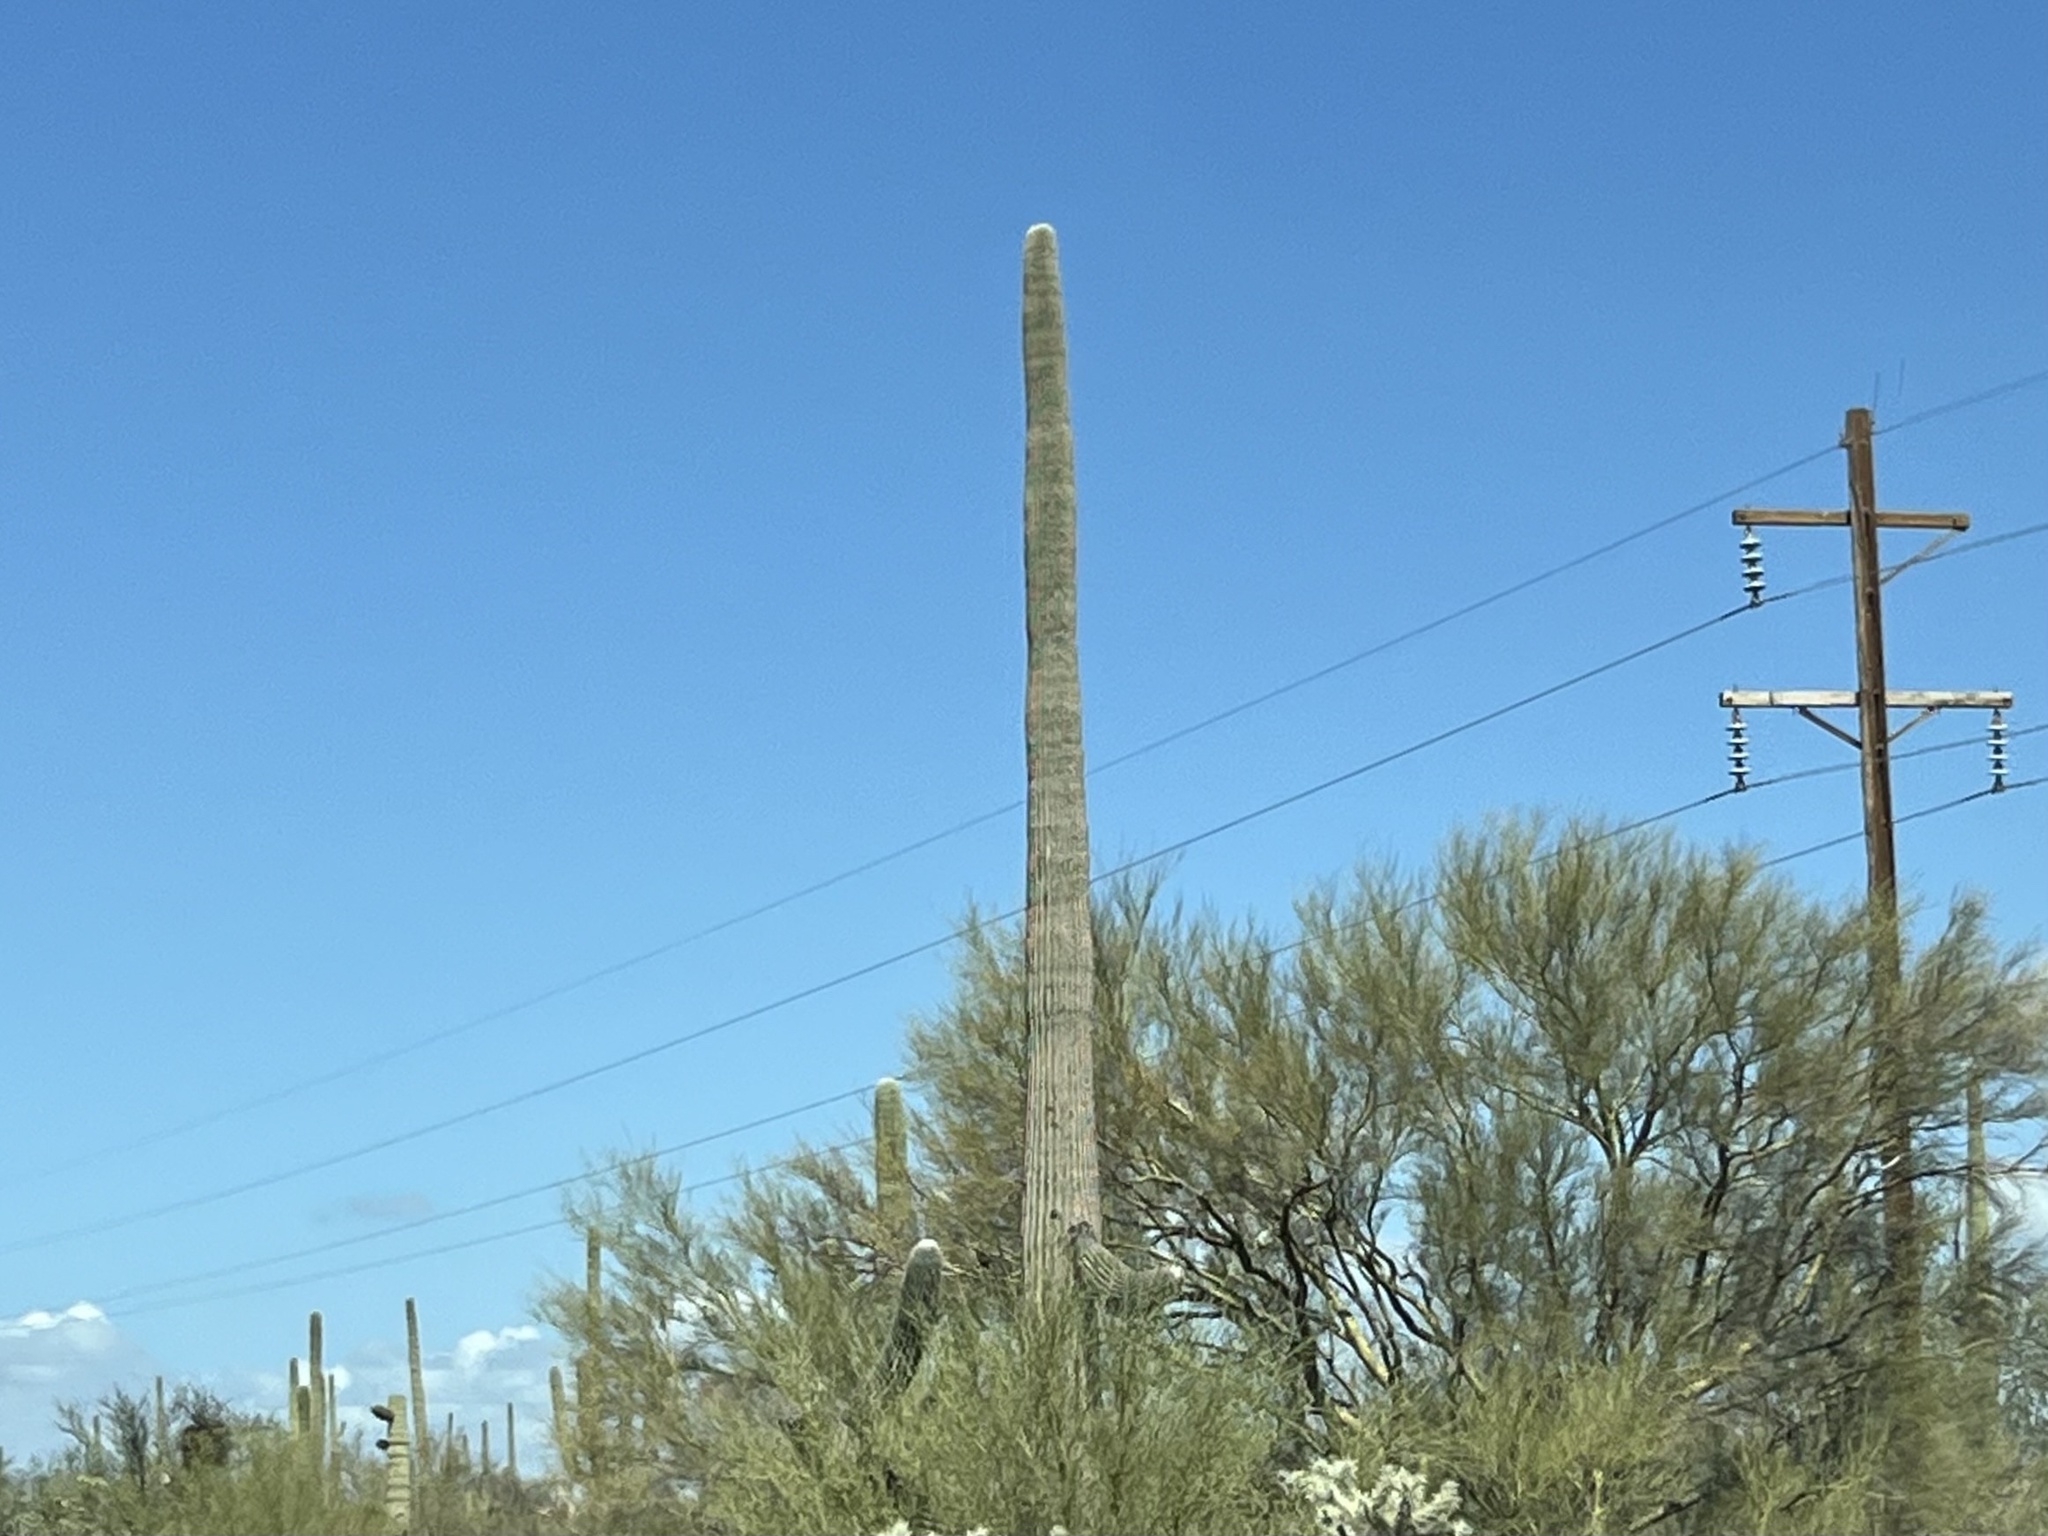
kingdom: Plantae
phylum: Tracheophyta
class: Magnoliopsida
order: Caryophyllales
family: Cactaceae
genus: Carnegiea
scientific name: Carnegiea gigantea
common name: Saguaro
